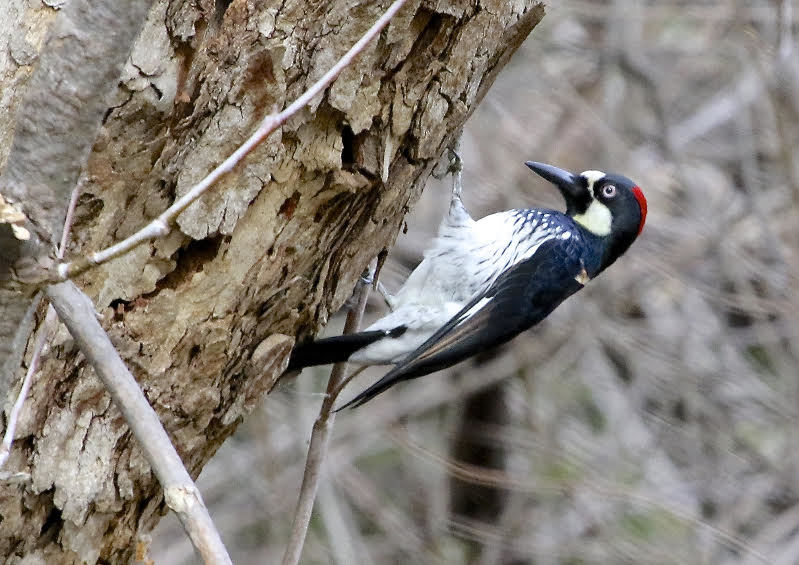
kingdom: Animalia
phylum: Chordata
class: Aves
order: Piciformes
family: Picidae
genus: Melanerpes
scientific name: Melanerpes formicivorus
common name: Acorn woodpecker
